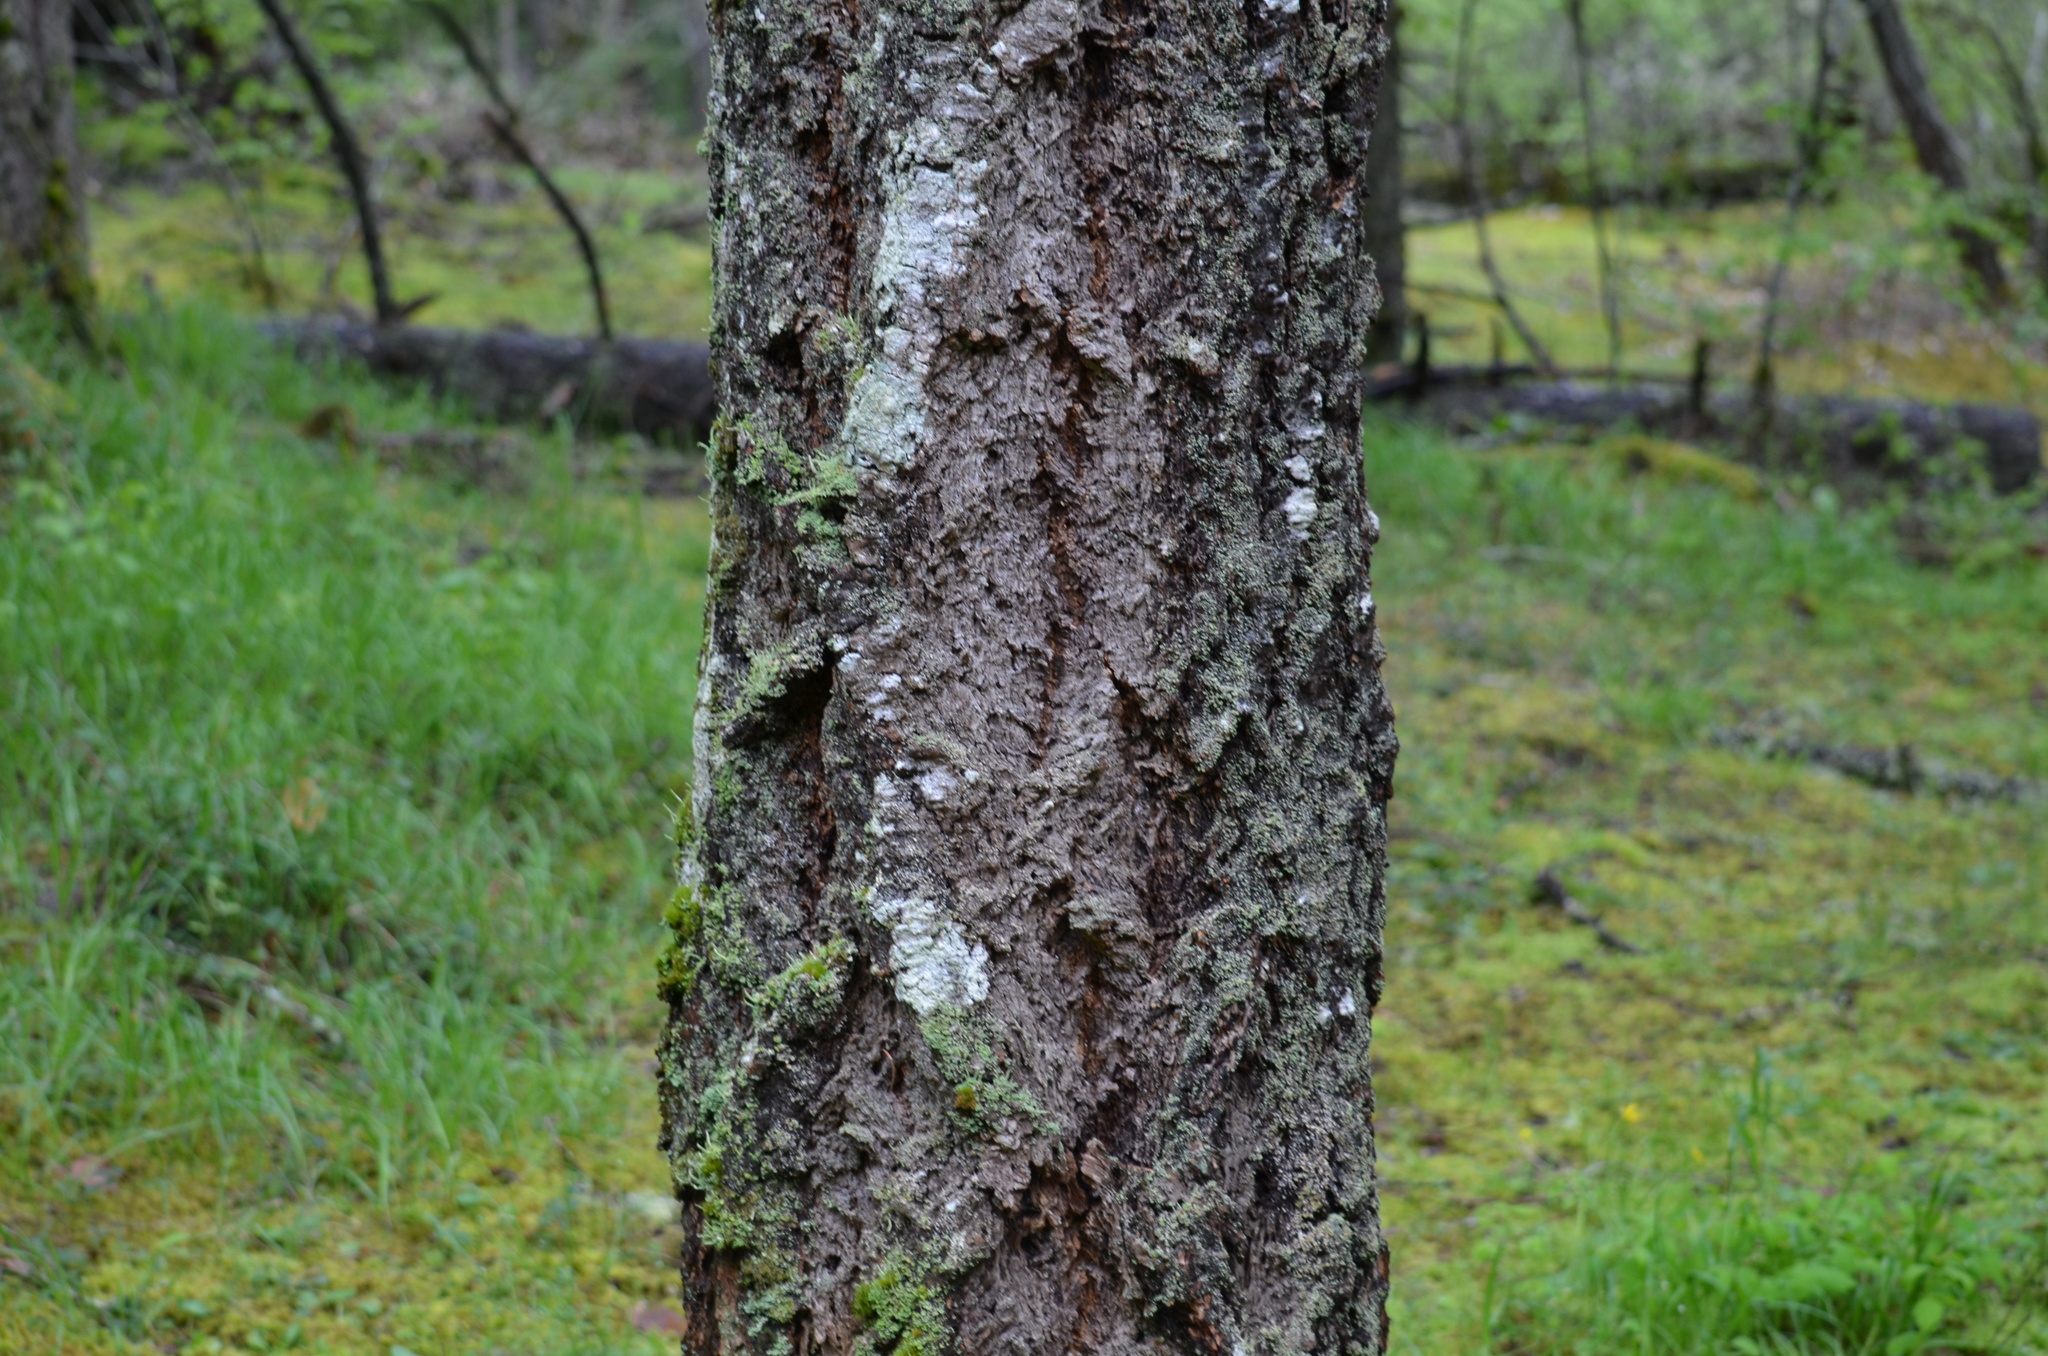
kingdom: Plantae
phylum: Tracheophyta
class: Pinopsida
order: Pinales
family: Pinaceae
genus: Pseudotsuga
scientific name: Pseudotsuga menziesii
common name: Douglas fir
